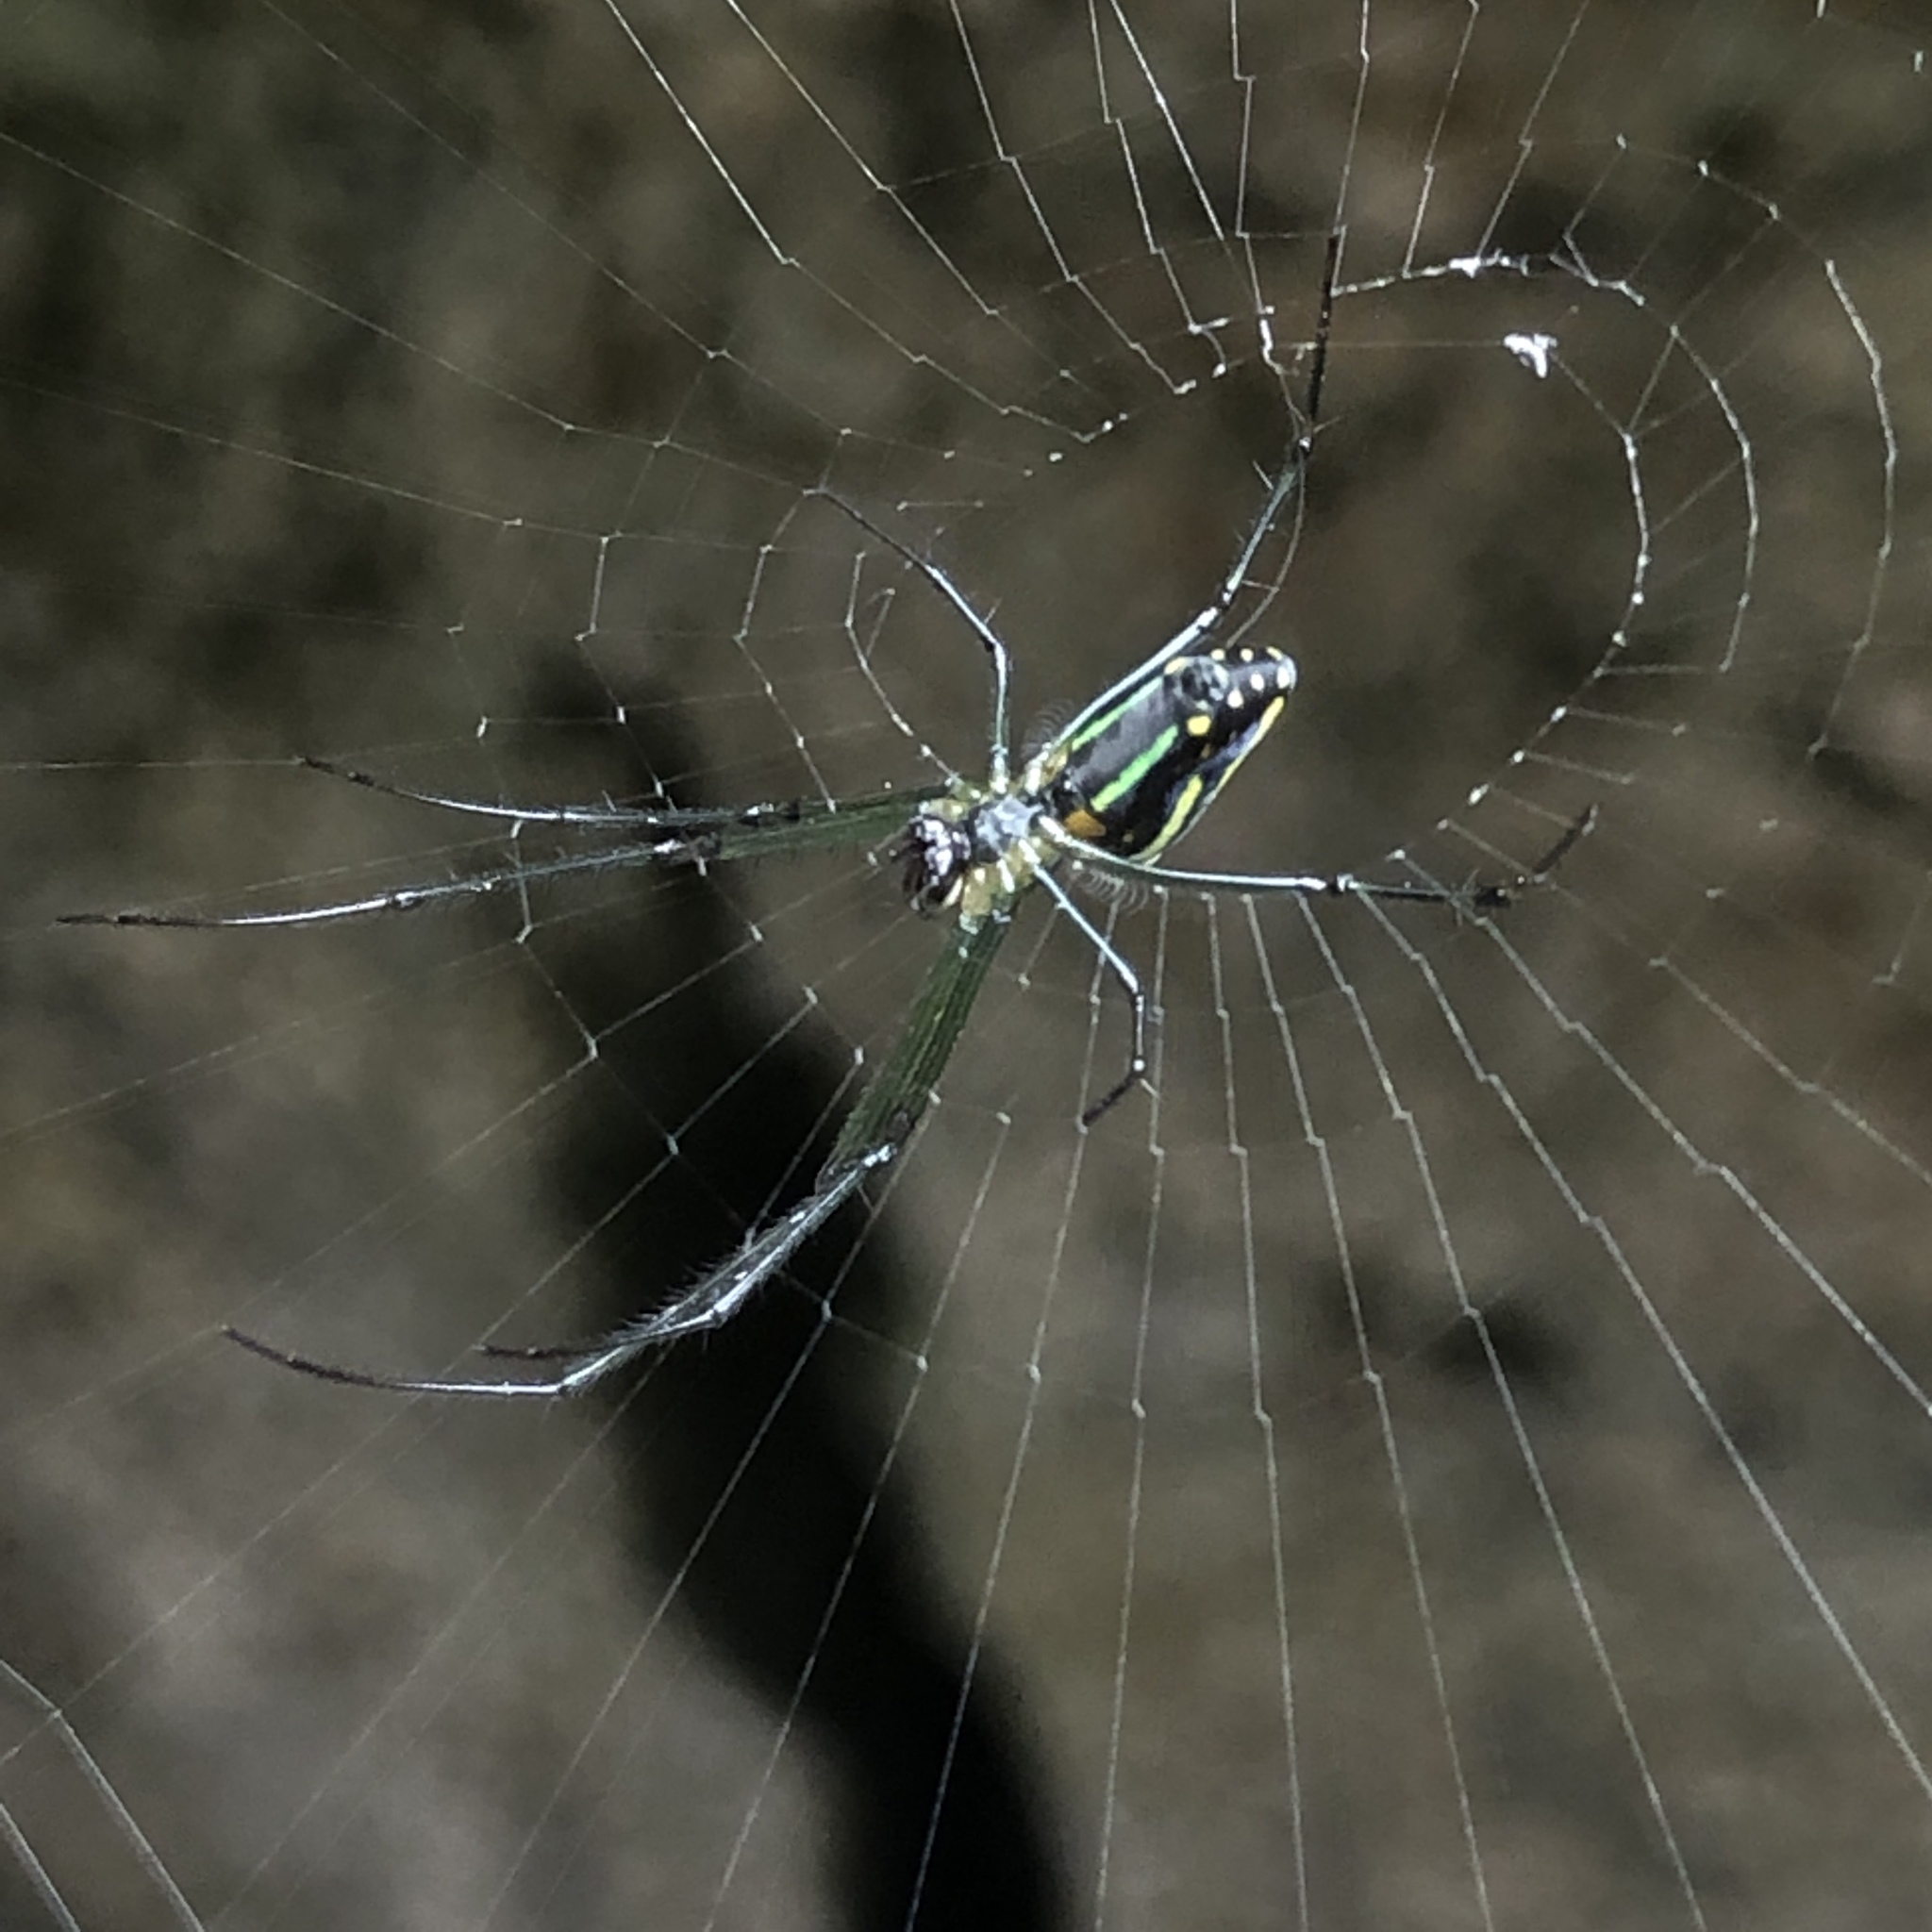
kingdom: Animalia
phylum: Arthropoda
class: Arachnida
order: Araneae
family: Tetragnathidae
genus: Leucauge
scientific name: Leucauge celebesiana
